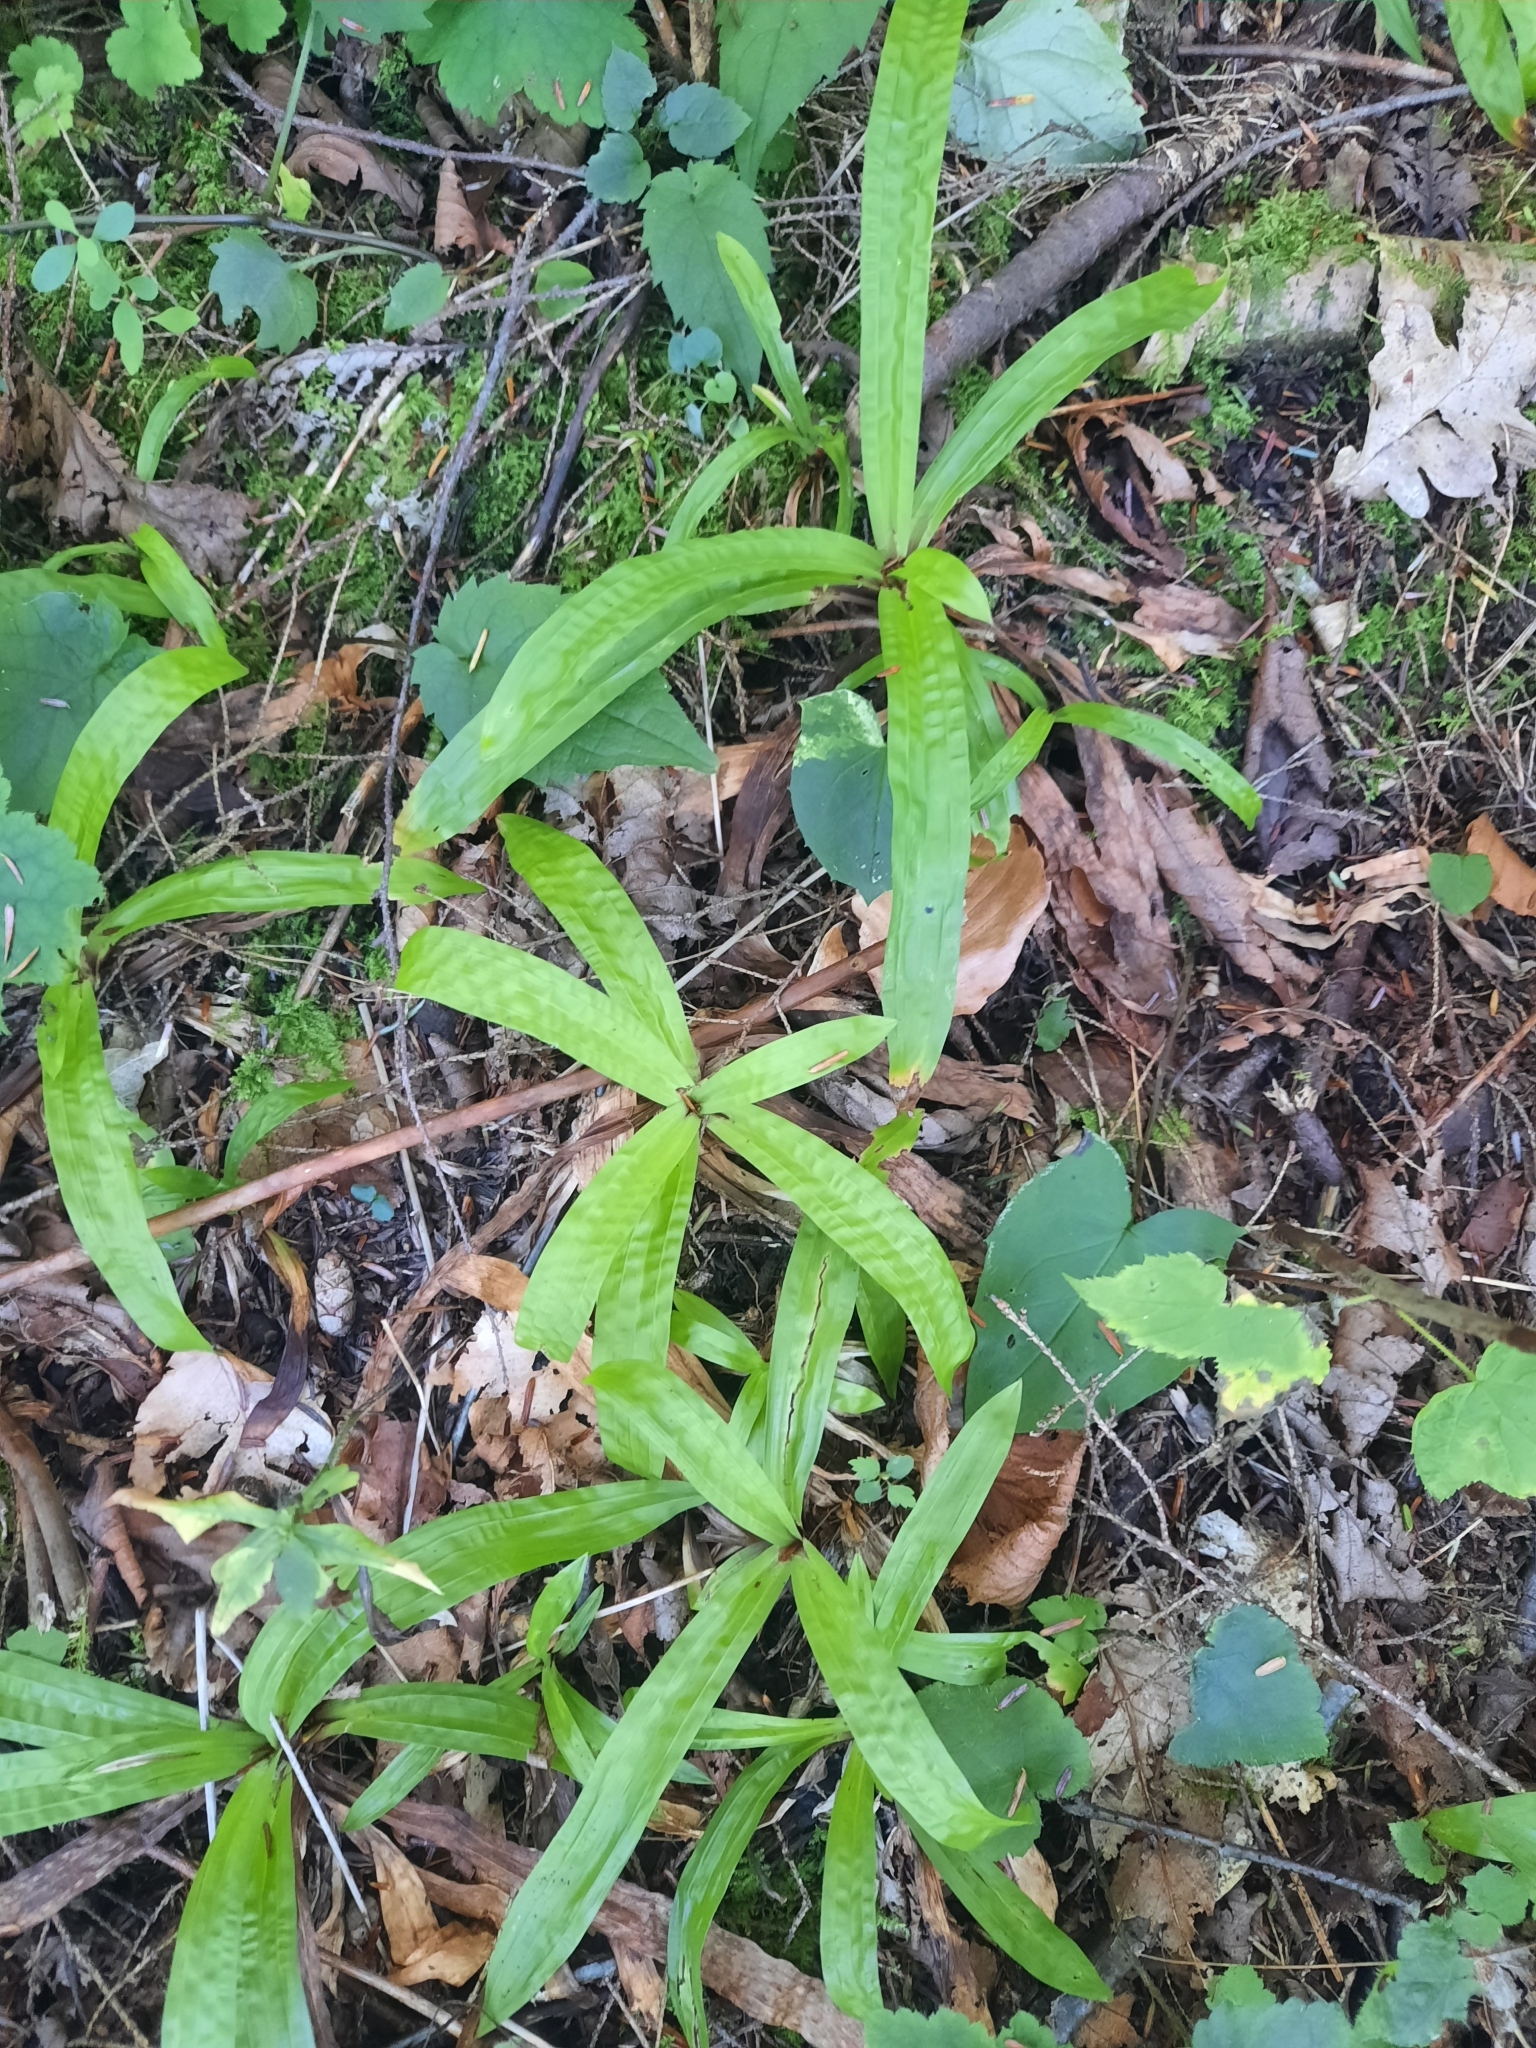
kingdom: Plantae
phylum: Tracheophyta
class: Liliopsida
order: Poales
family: Cyperaceae
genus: Carex
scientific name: Carex plantaginea
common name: Plantain-leaved sedge
